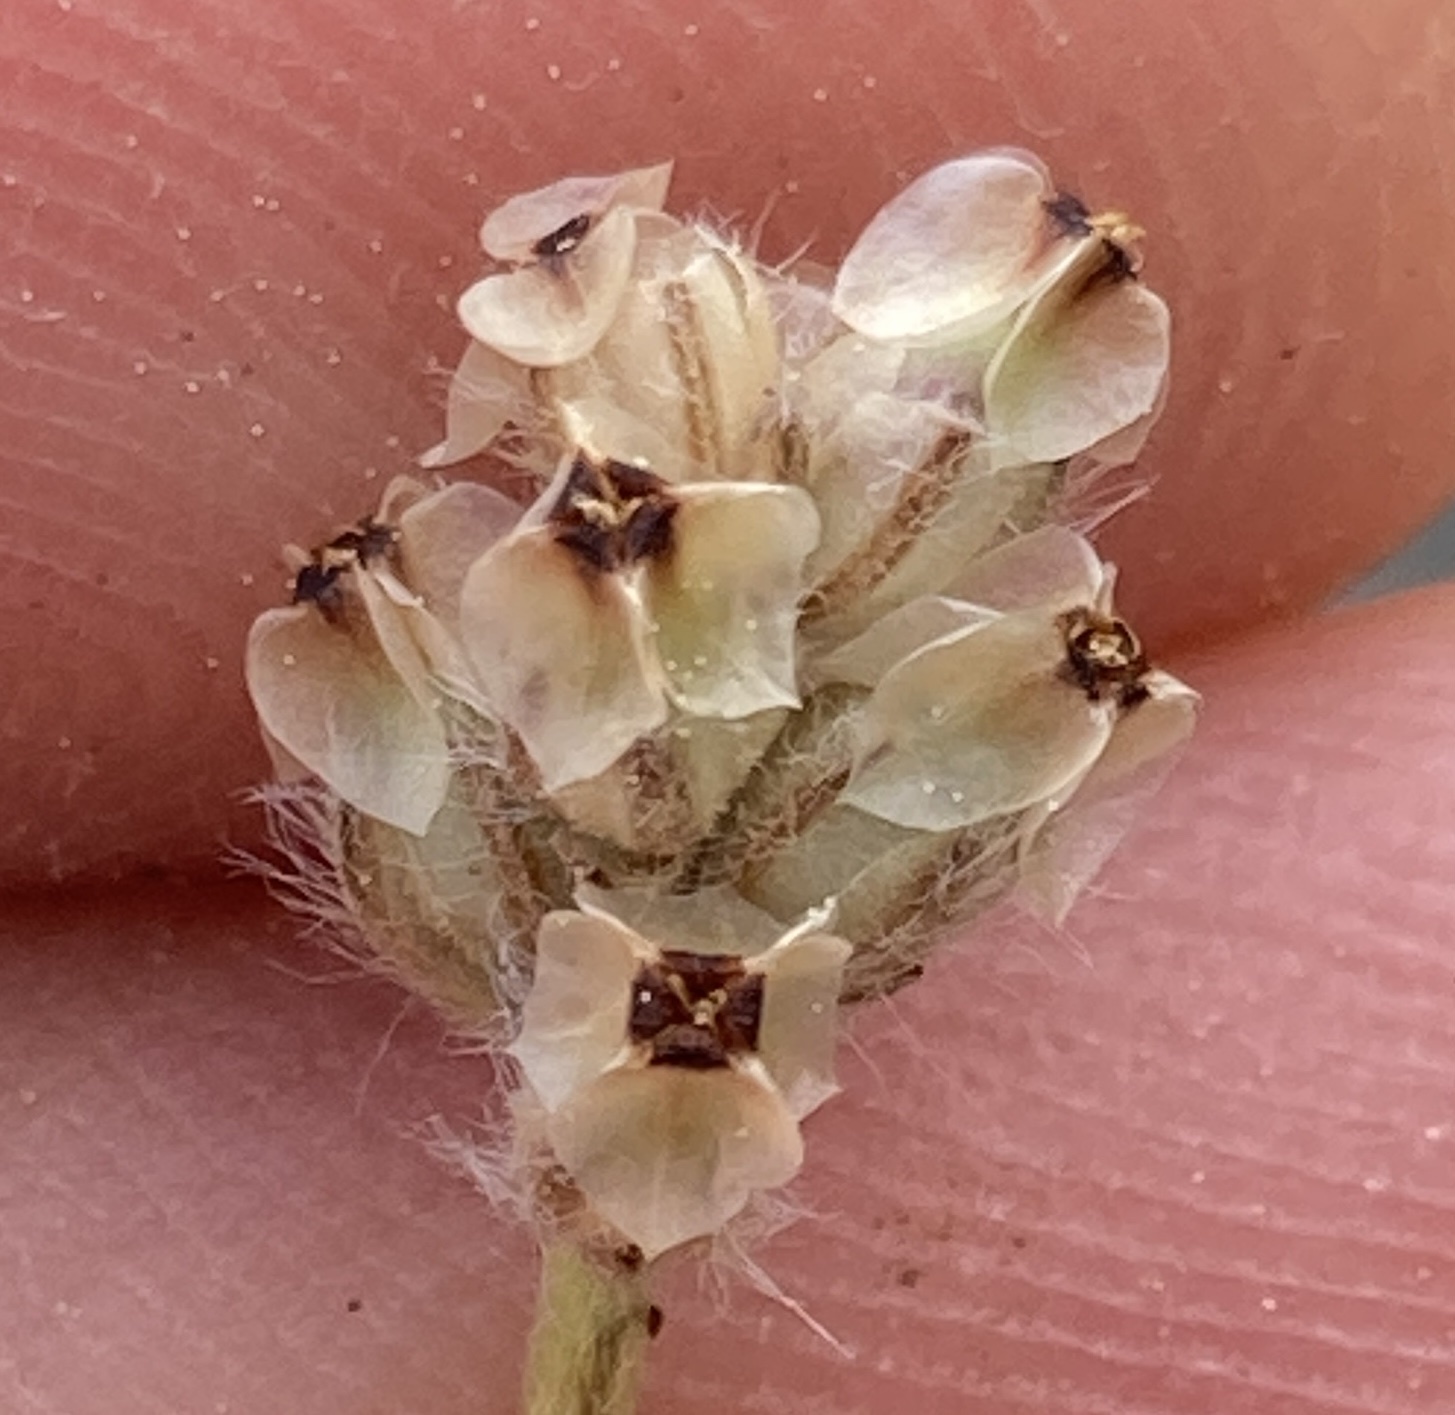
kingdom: Plantae
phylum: Tracheophyta
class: Magnoliopsida
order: Lamiales
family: Plantaginaceae
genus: Plantago
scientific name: Plantago erecta
